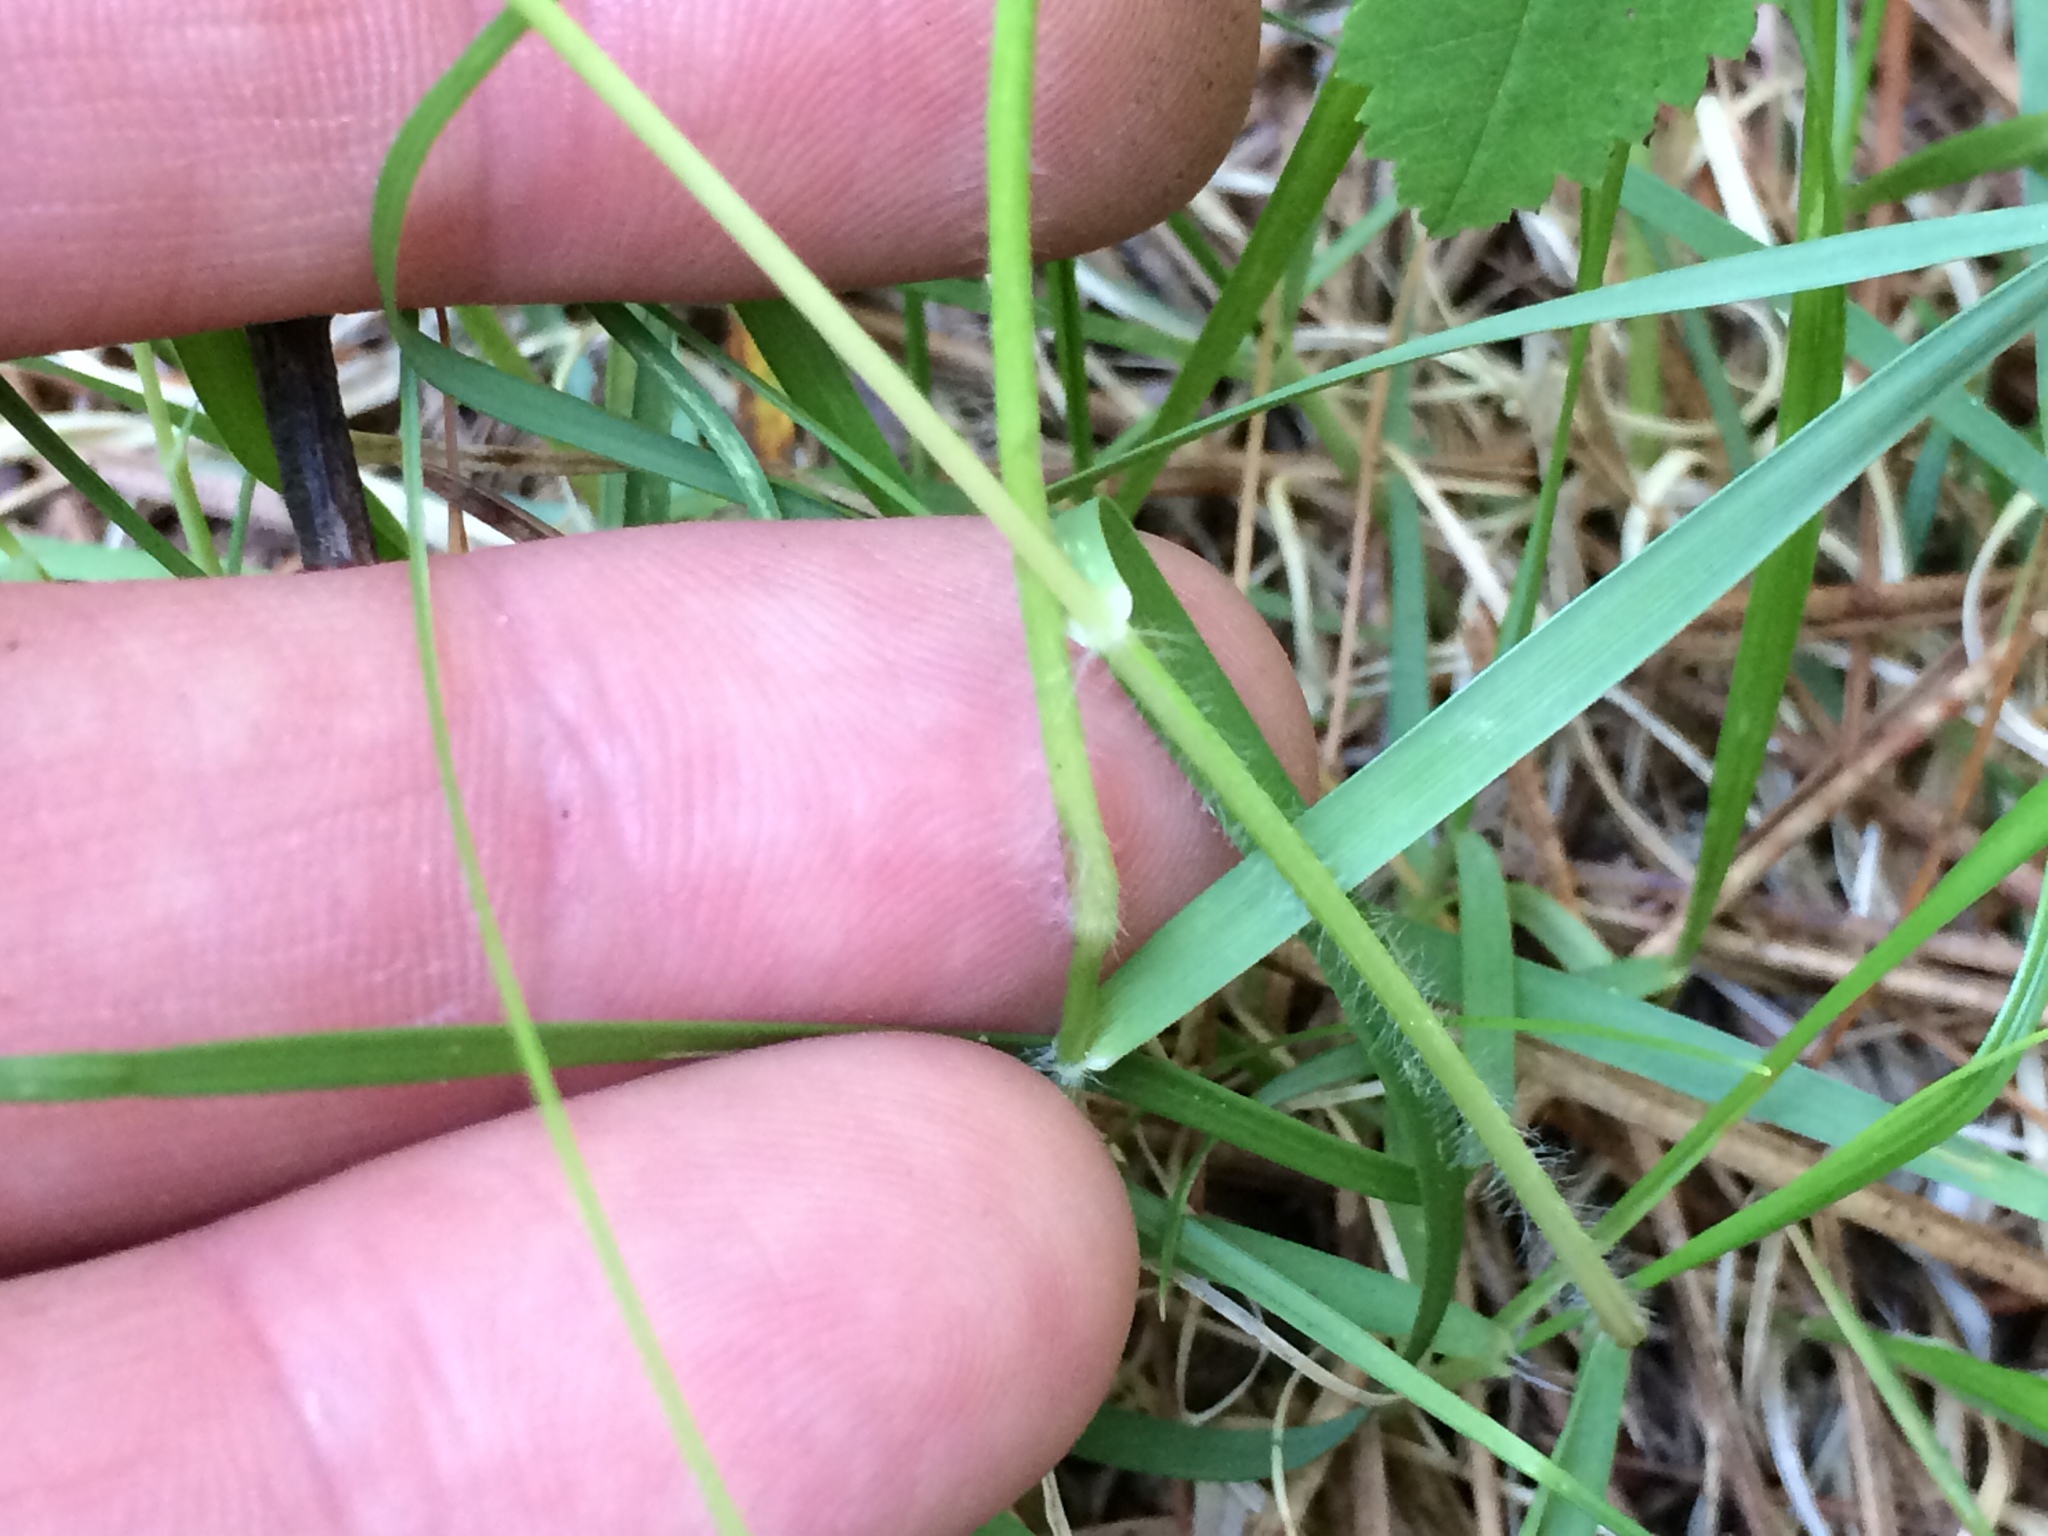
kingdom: Plantae
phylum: Tracheophyta
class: Liliopsida
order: Poales
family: Poaceae
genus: Danthonia
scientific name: Danthonia spicata
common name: Common wild oatgrass
